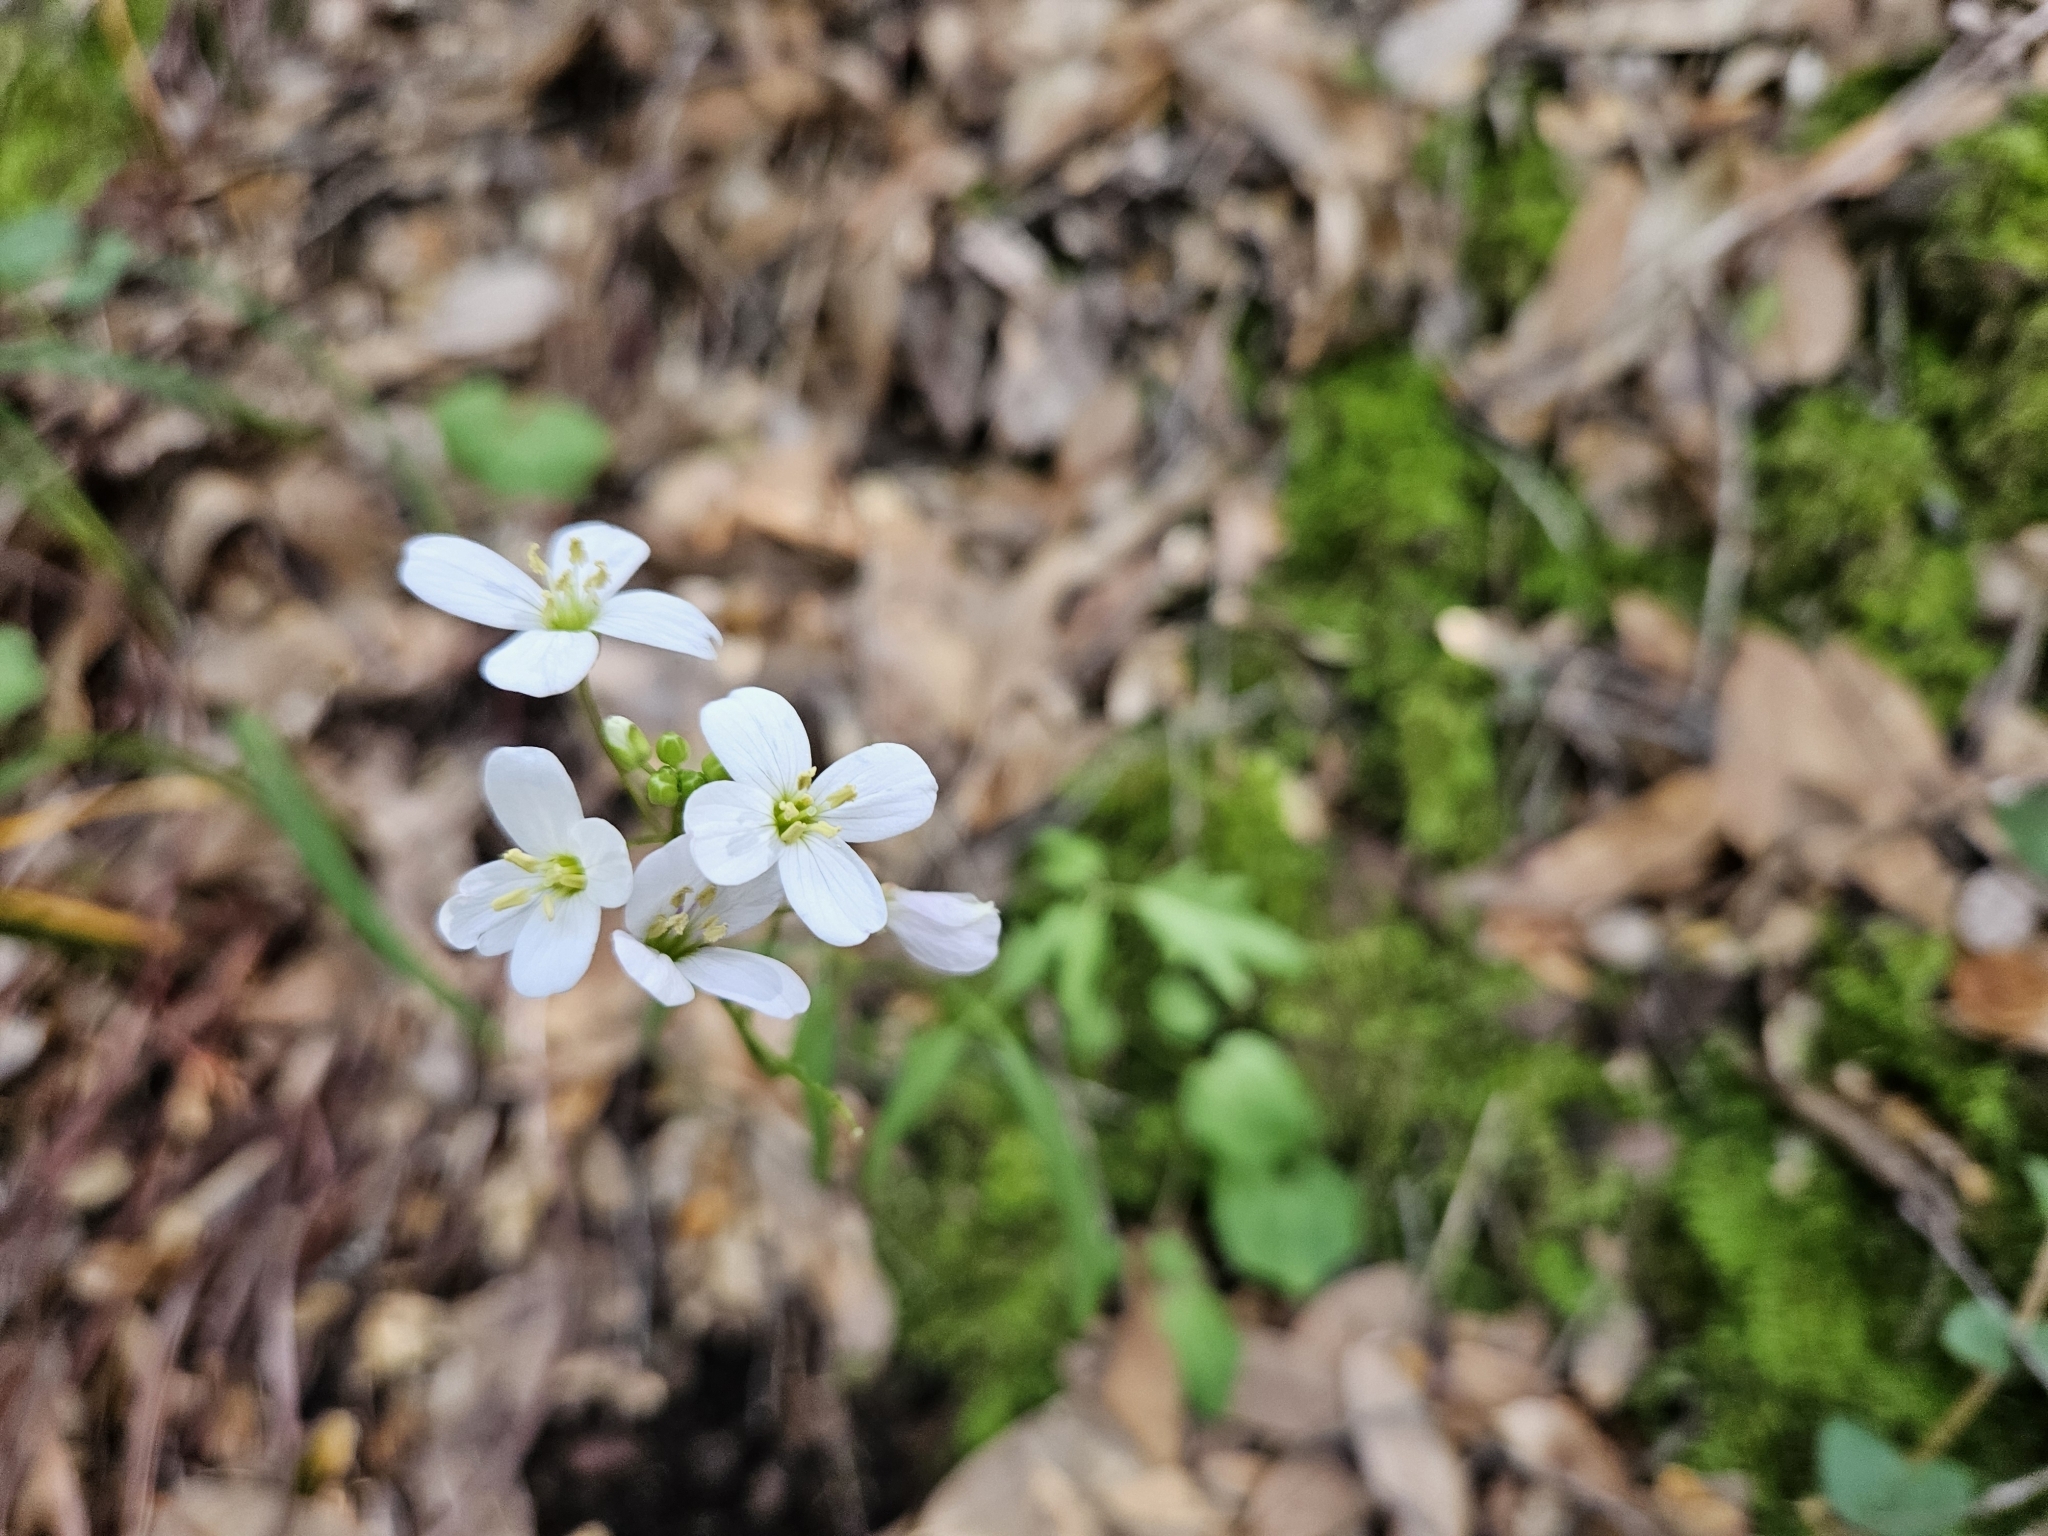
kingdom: Plantae
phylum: Tracheophyta
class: Magnoliopsida
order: Brassicales
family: Brassicaceae
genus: Cardamine
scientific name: Cardamine californica
